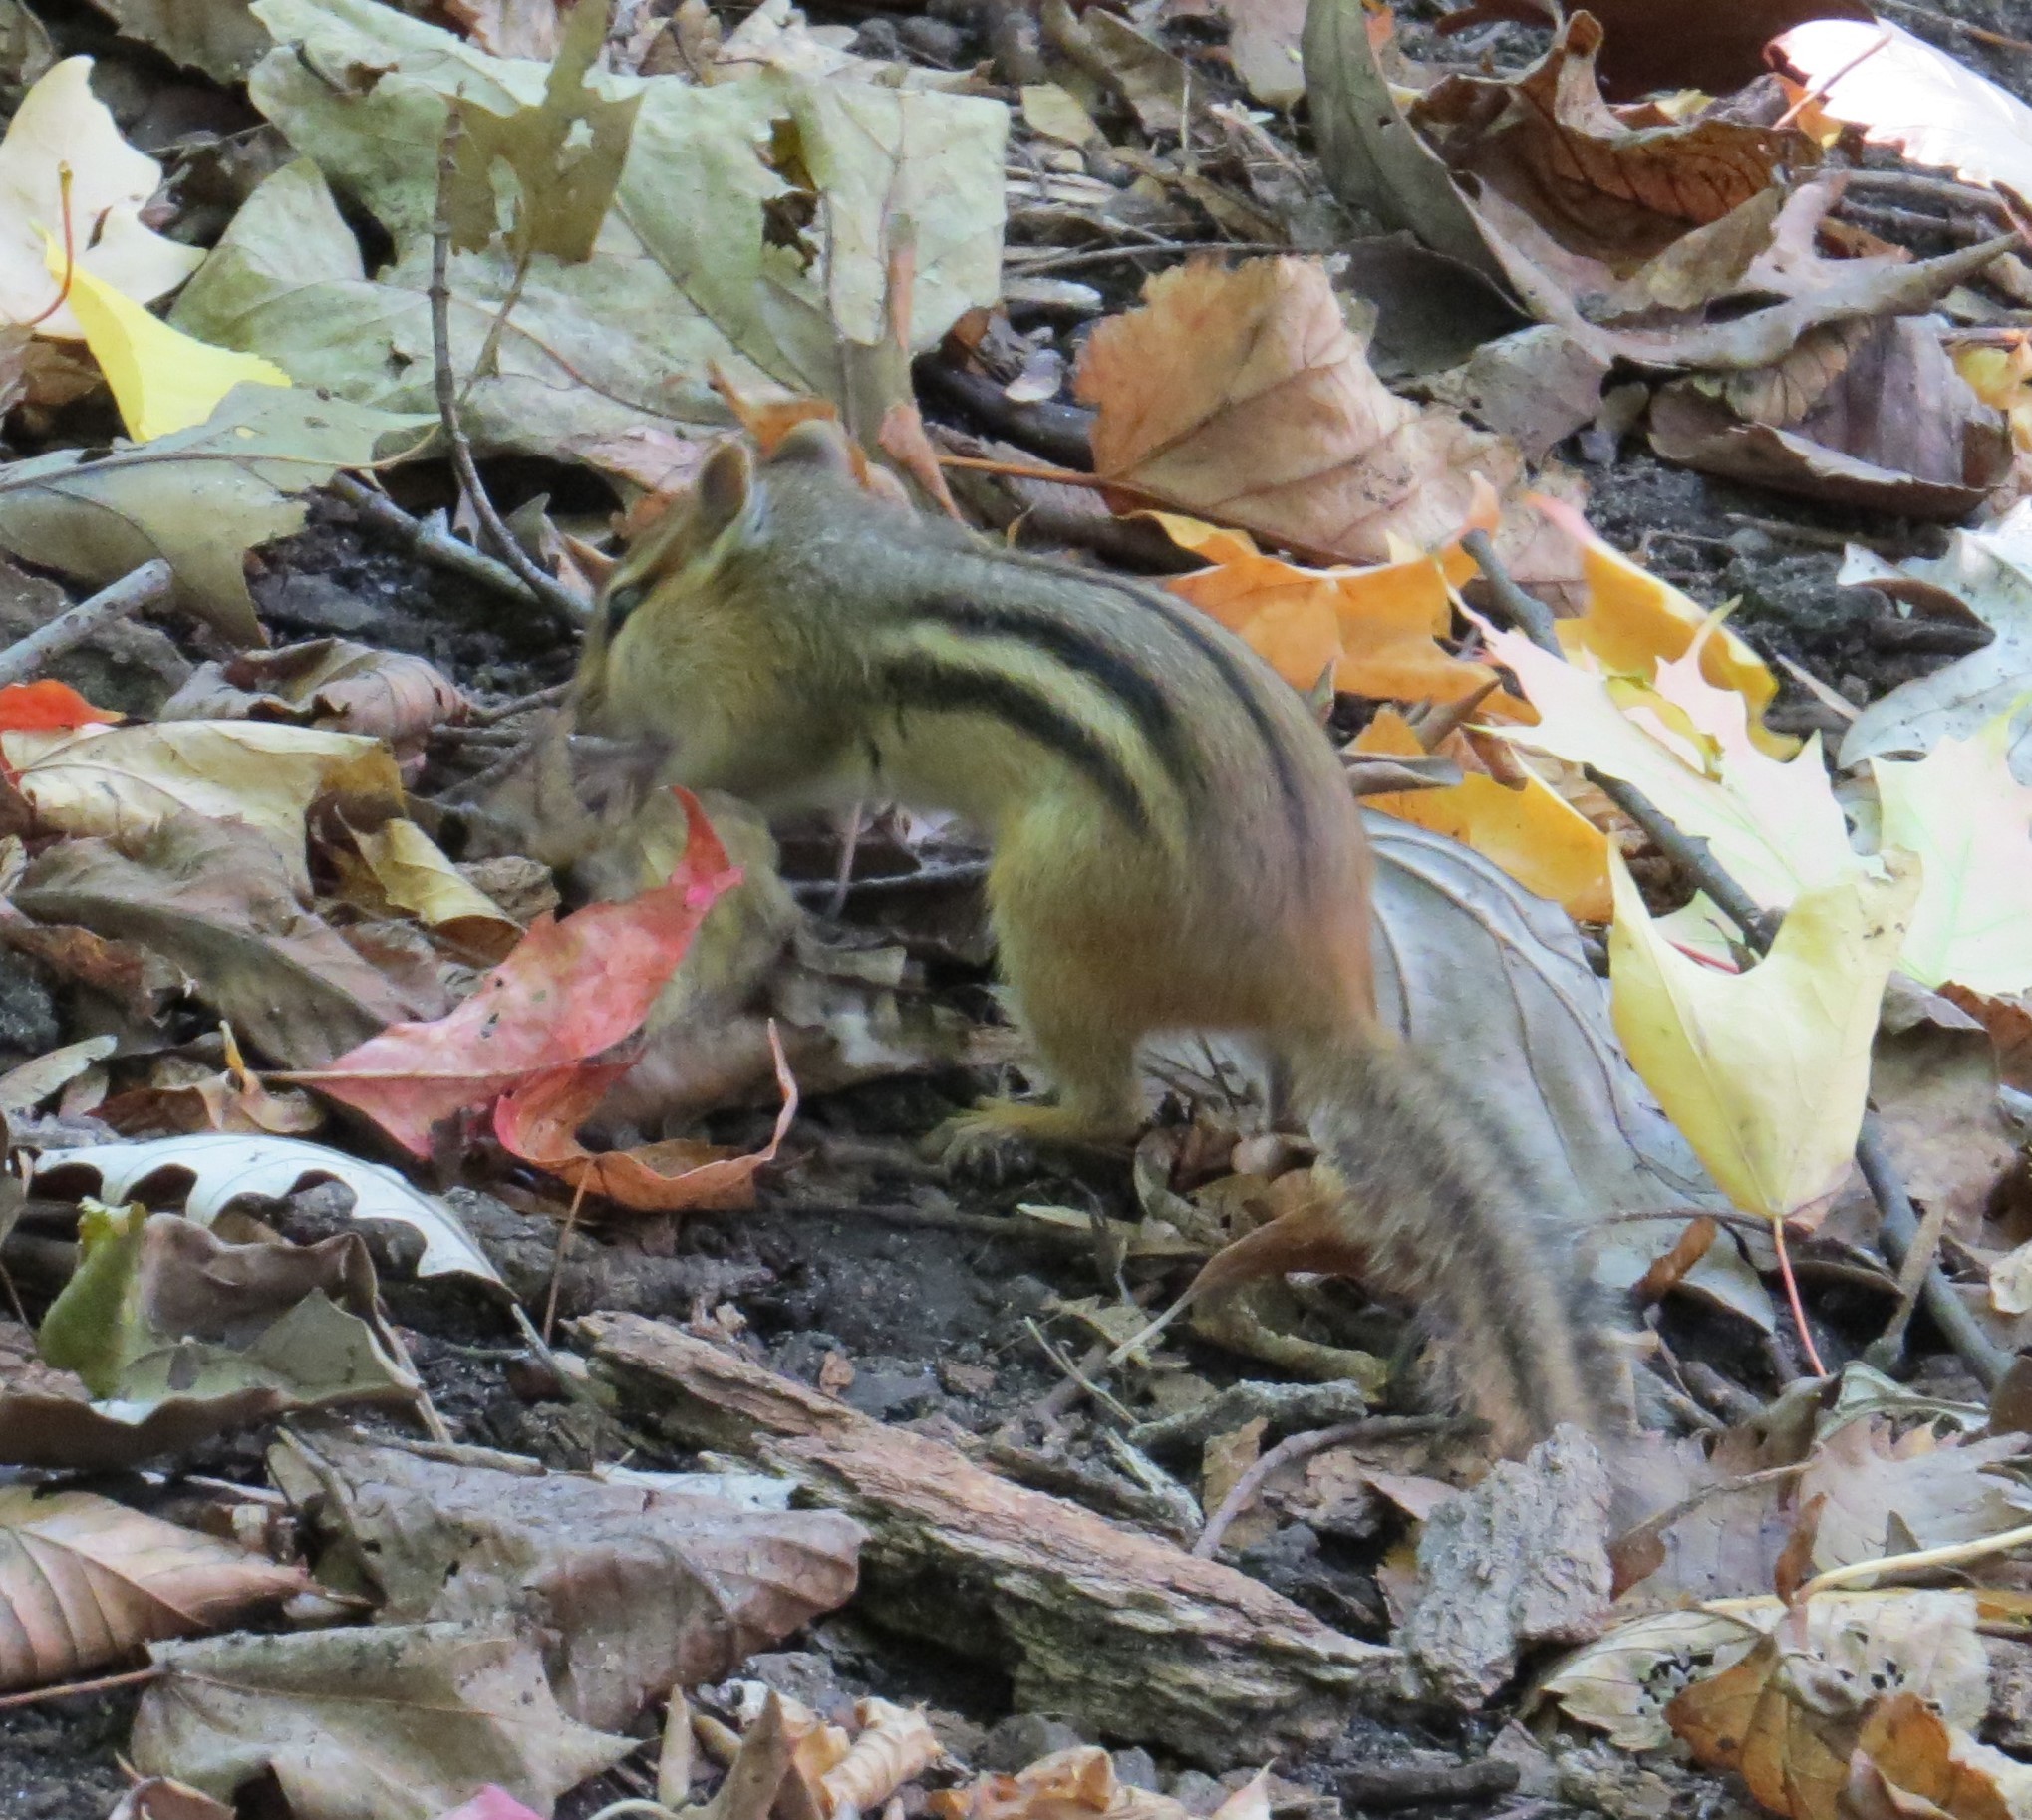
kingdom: Animalia
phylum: Chordata
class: Mammalia
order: Rodentia
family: Sciuridae
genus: Tamias
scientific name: Tamias striatus
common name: Eastern chipmunk
